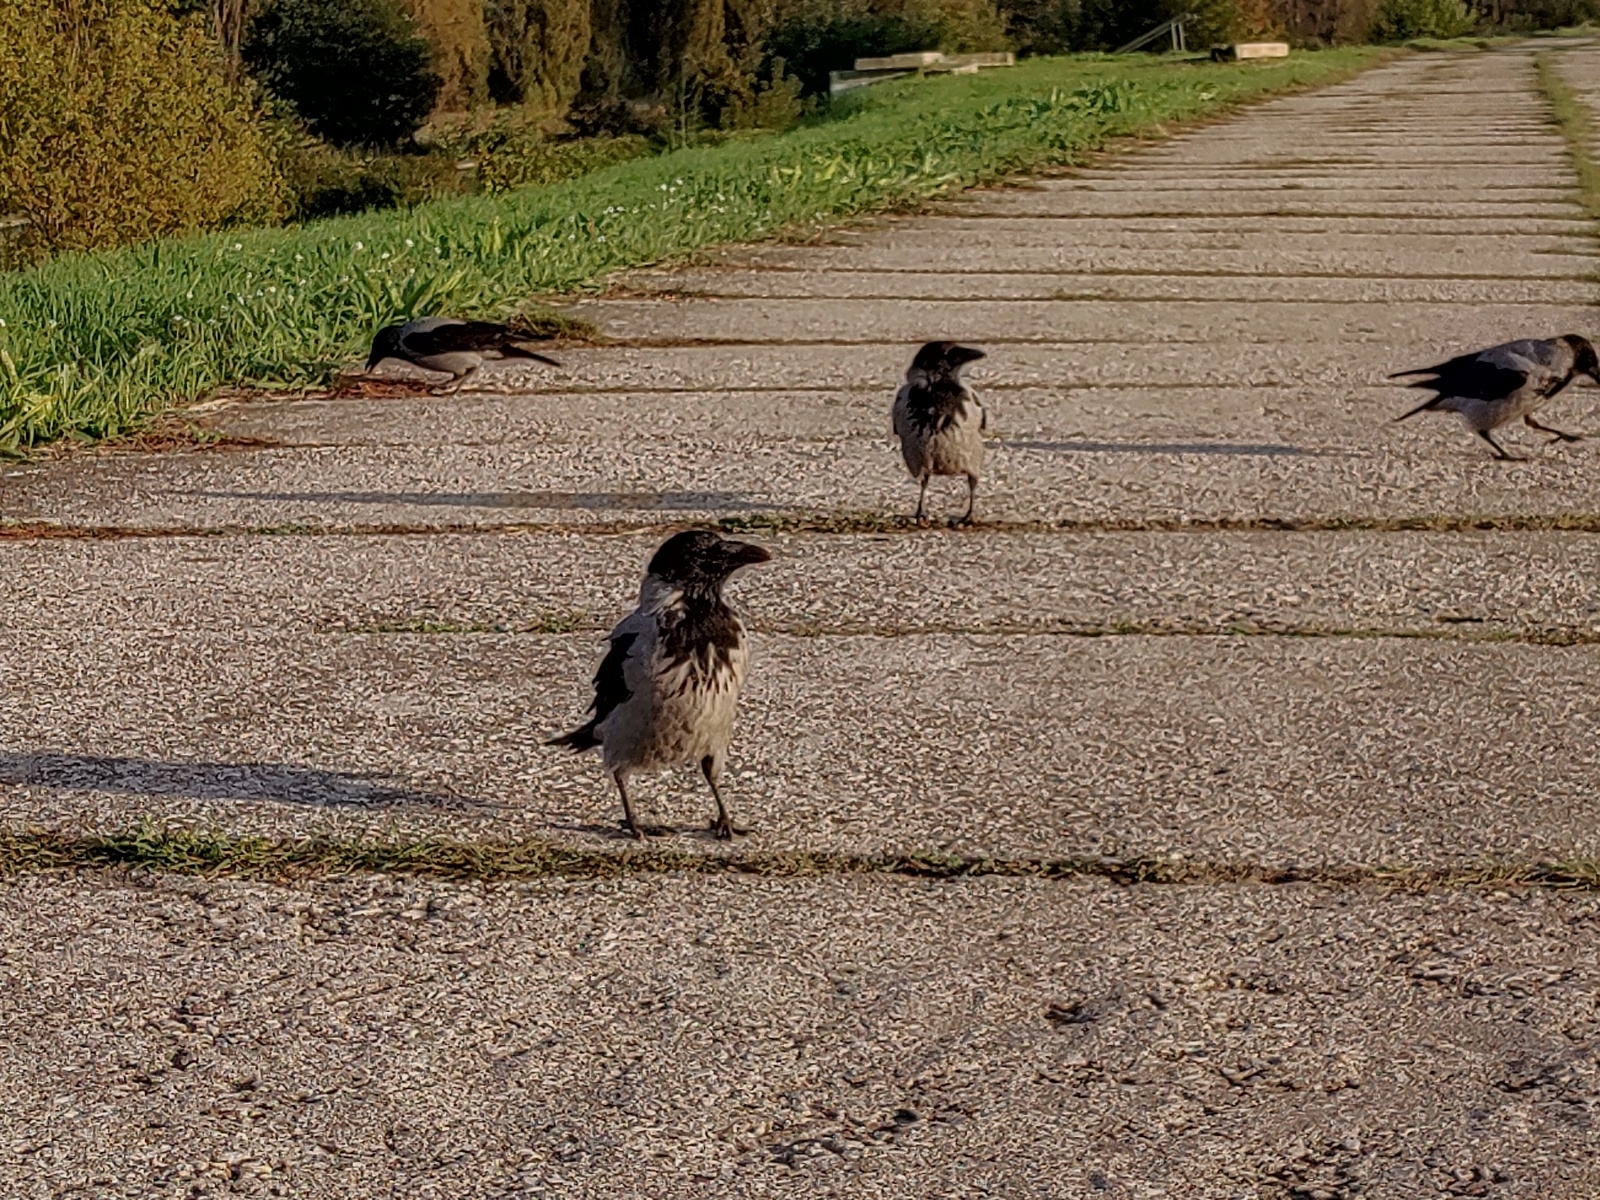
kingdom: Animalia
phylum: Chordata
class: Aves
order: Passeriformes
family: Corvidae
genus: Corvus
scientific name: Corvus cornix
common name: Hooded crow
